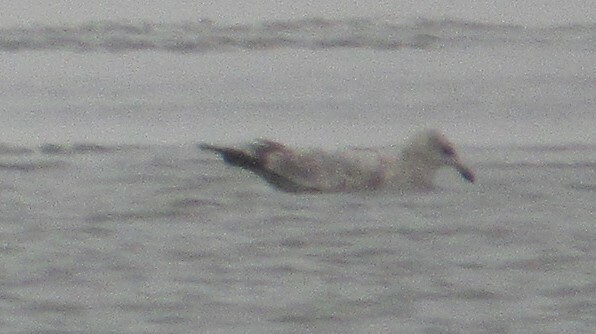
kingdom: Animalia
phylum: Chordata
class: Aves
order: Charadriiformes
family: Laridae
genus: Larus
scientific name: Larus argentatus
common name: Herring gull
